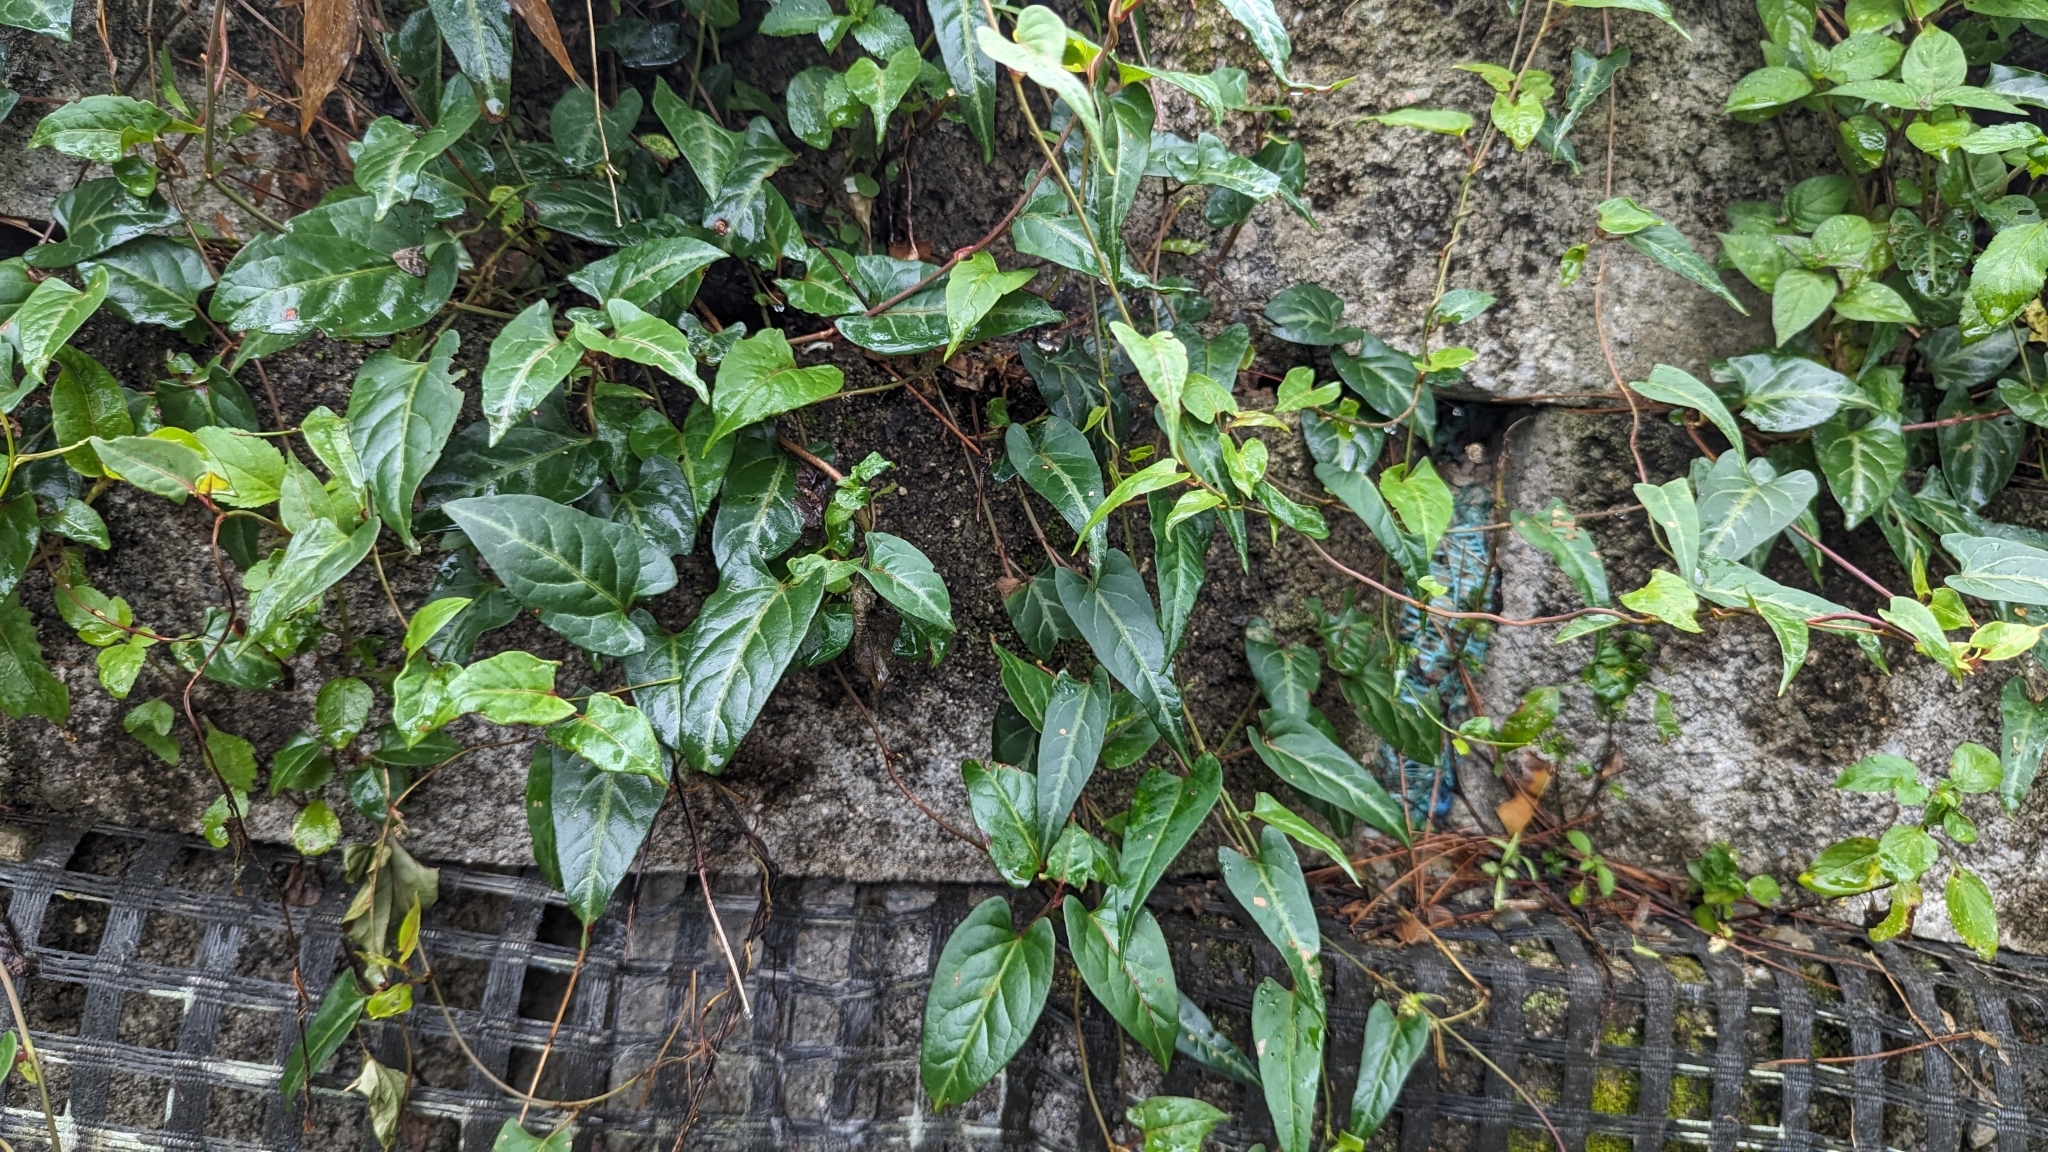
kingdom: Plantae
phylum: Tracheophyta
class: Magnoliopsida
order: Caryophyllales
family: Polygonaceae
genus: Reynoutria
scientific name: Reynoutria multiflora
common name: Chinese fleeceflower
